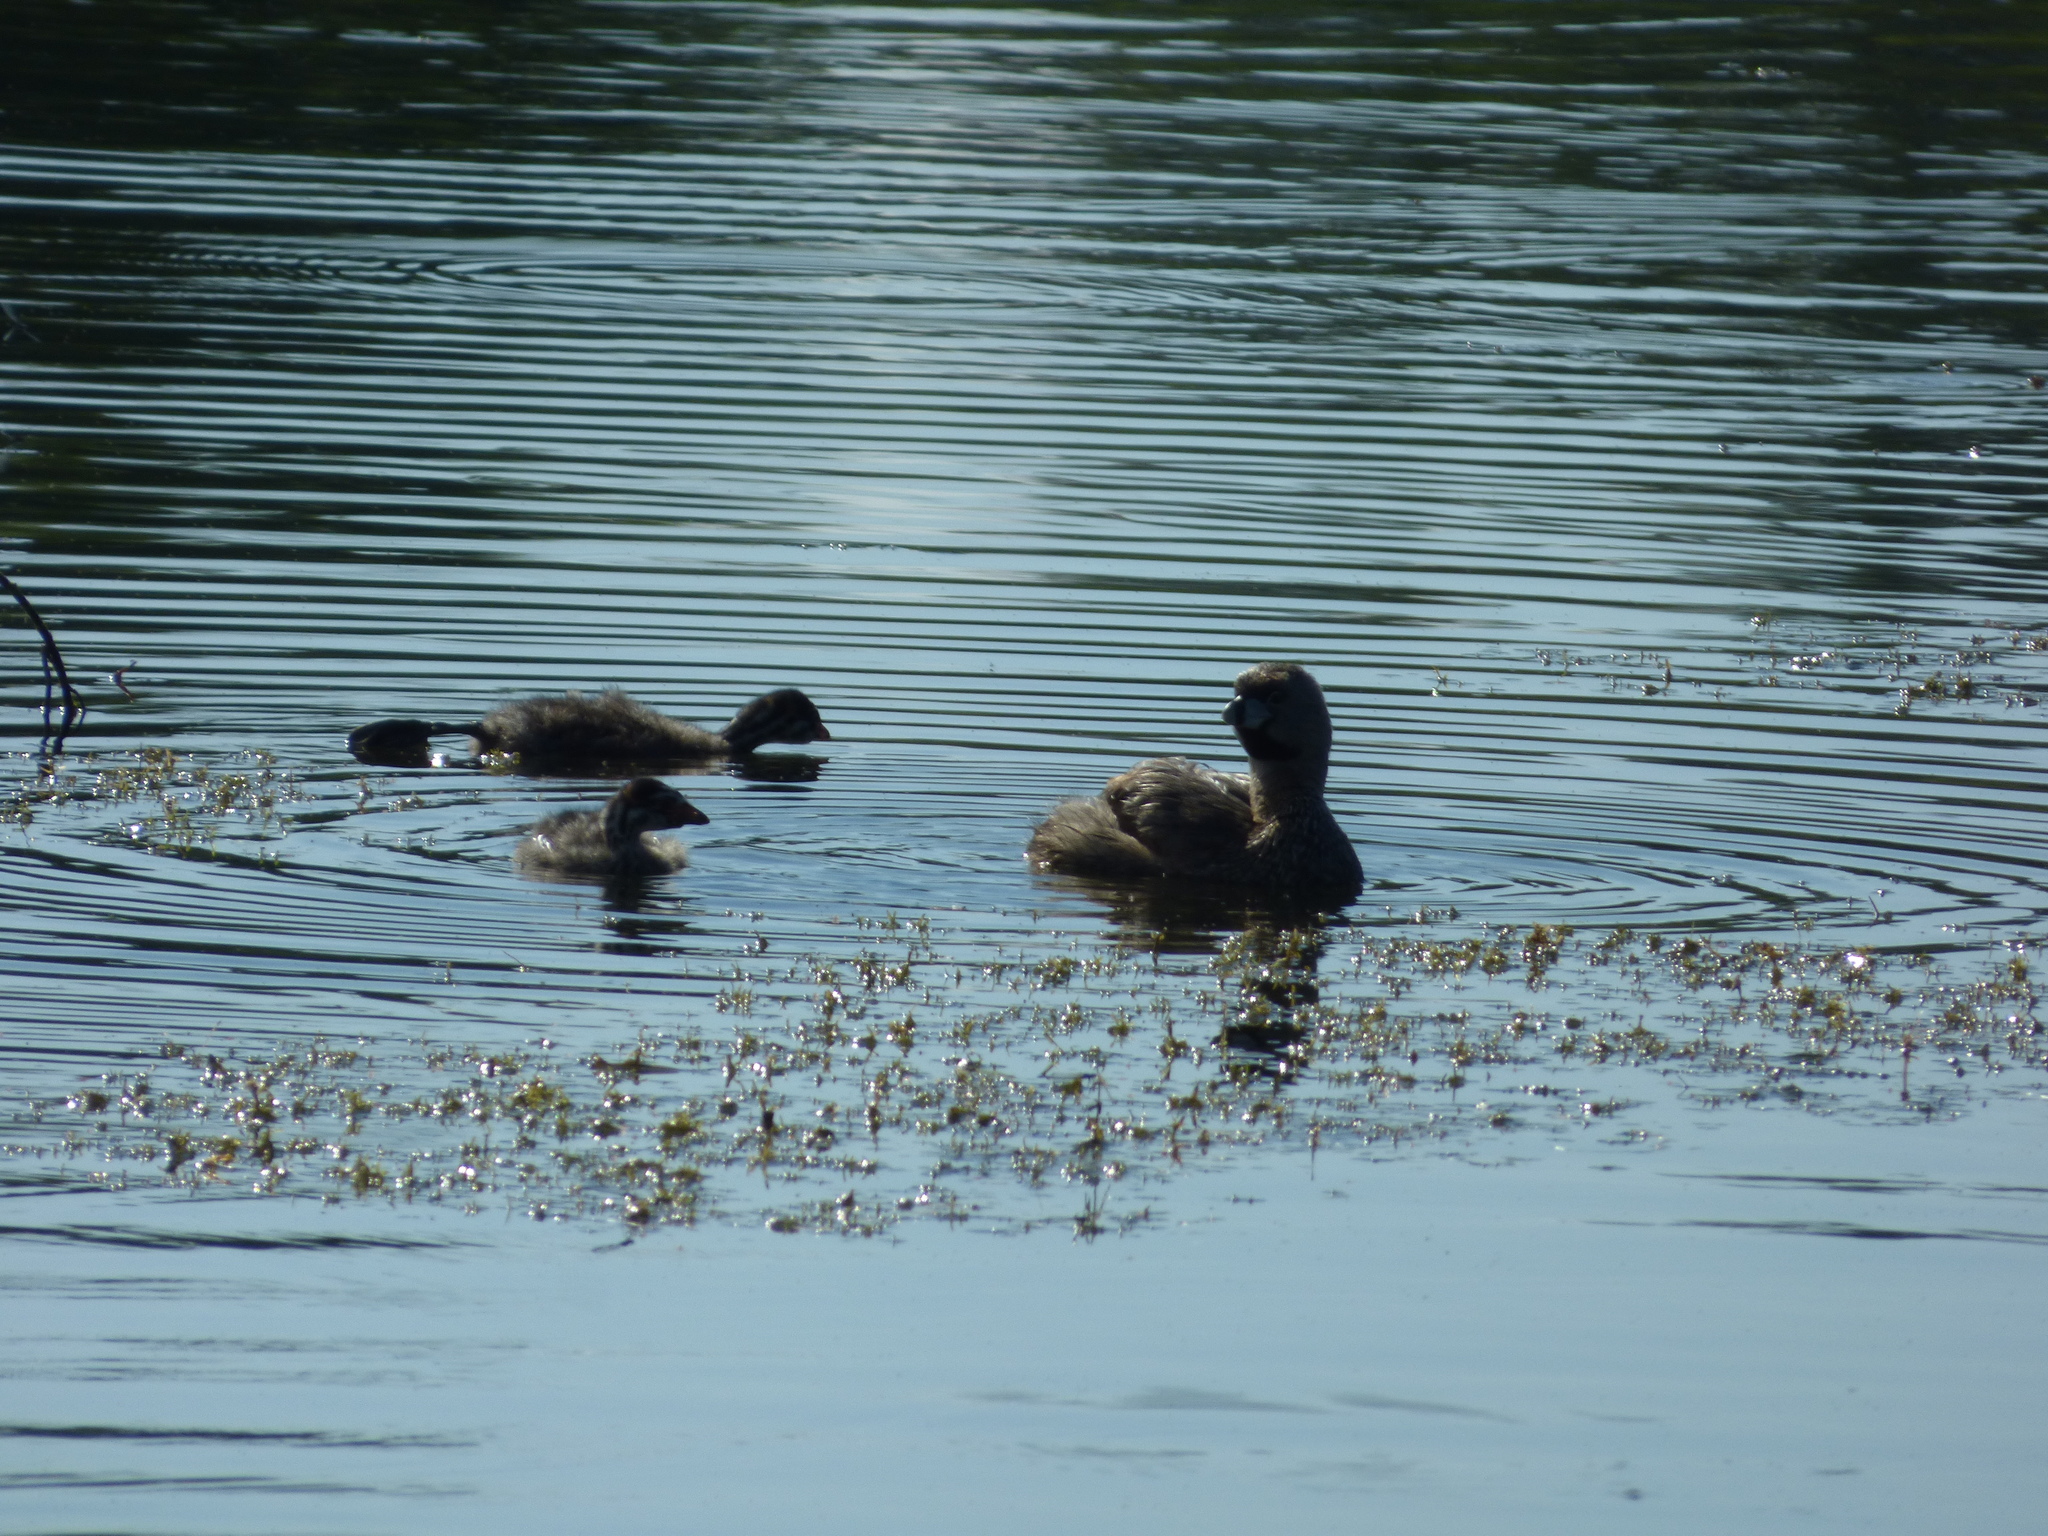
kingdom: Animalia
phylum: Chordata
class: Aves
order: Podicipediformes
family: Podicipedidae
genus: Podilymbus
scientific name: Podilymbus podiceps
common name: Pied-billed grebe
